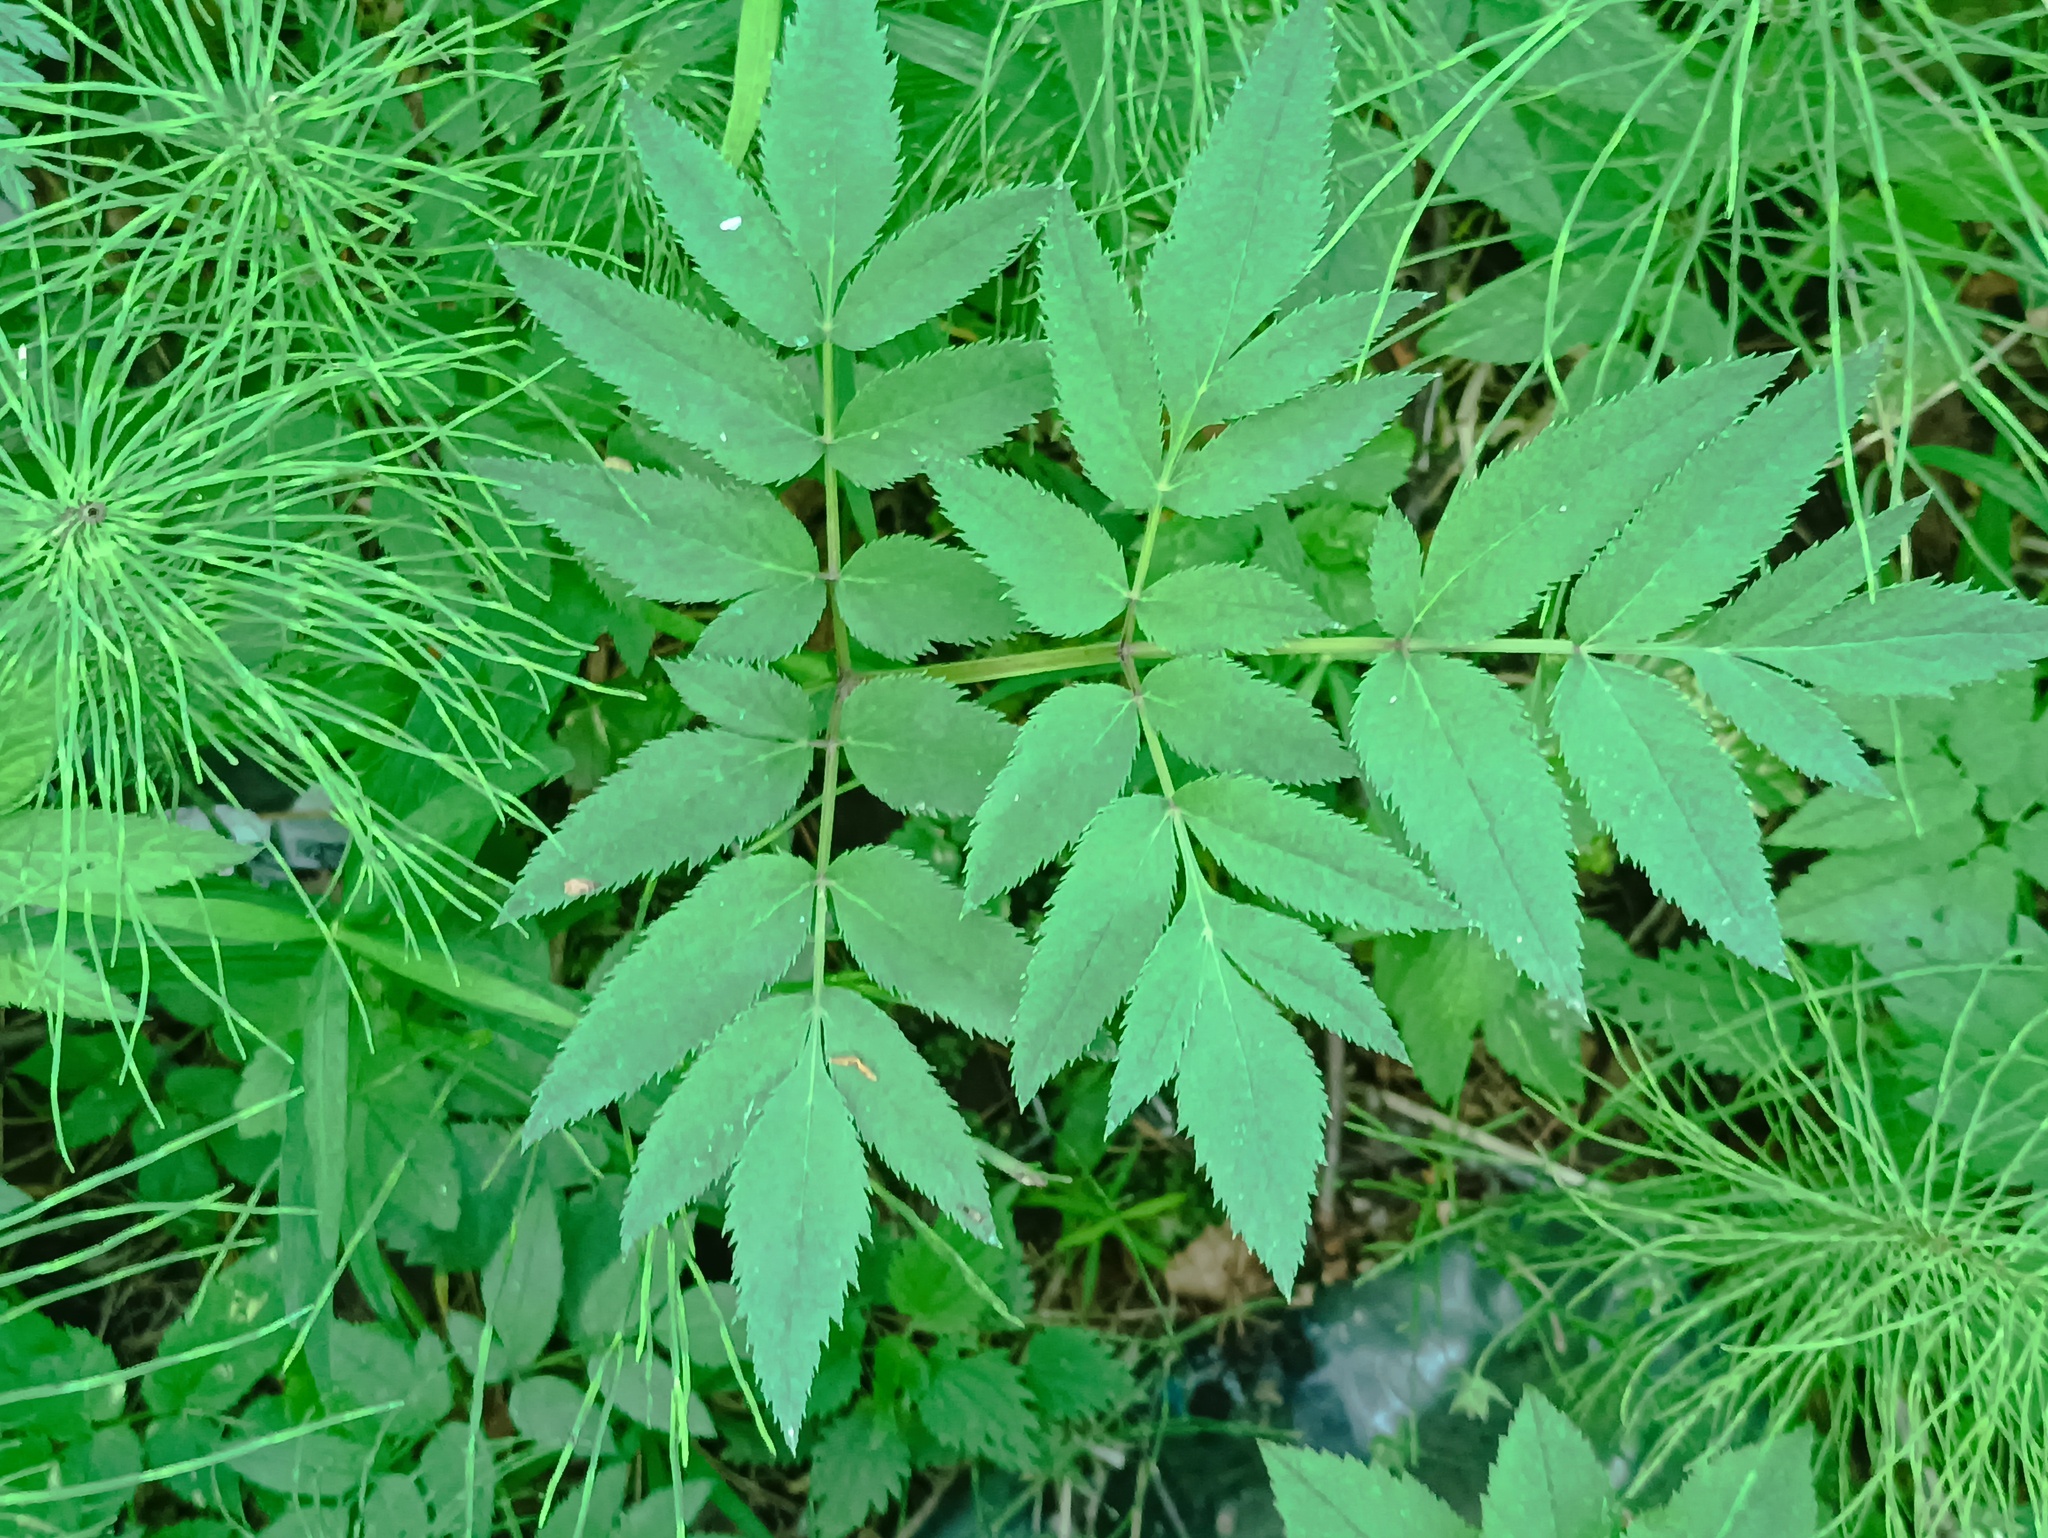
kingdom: Plantae
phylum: Tracheophyta
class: Magnoliopsida
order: Apiales
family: Apiaceae
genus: Angelica
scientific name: Angelica sylvestris
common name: Wild angelica
